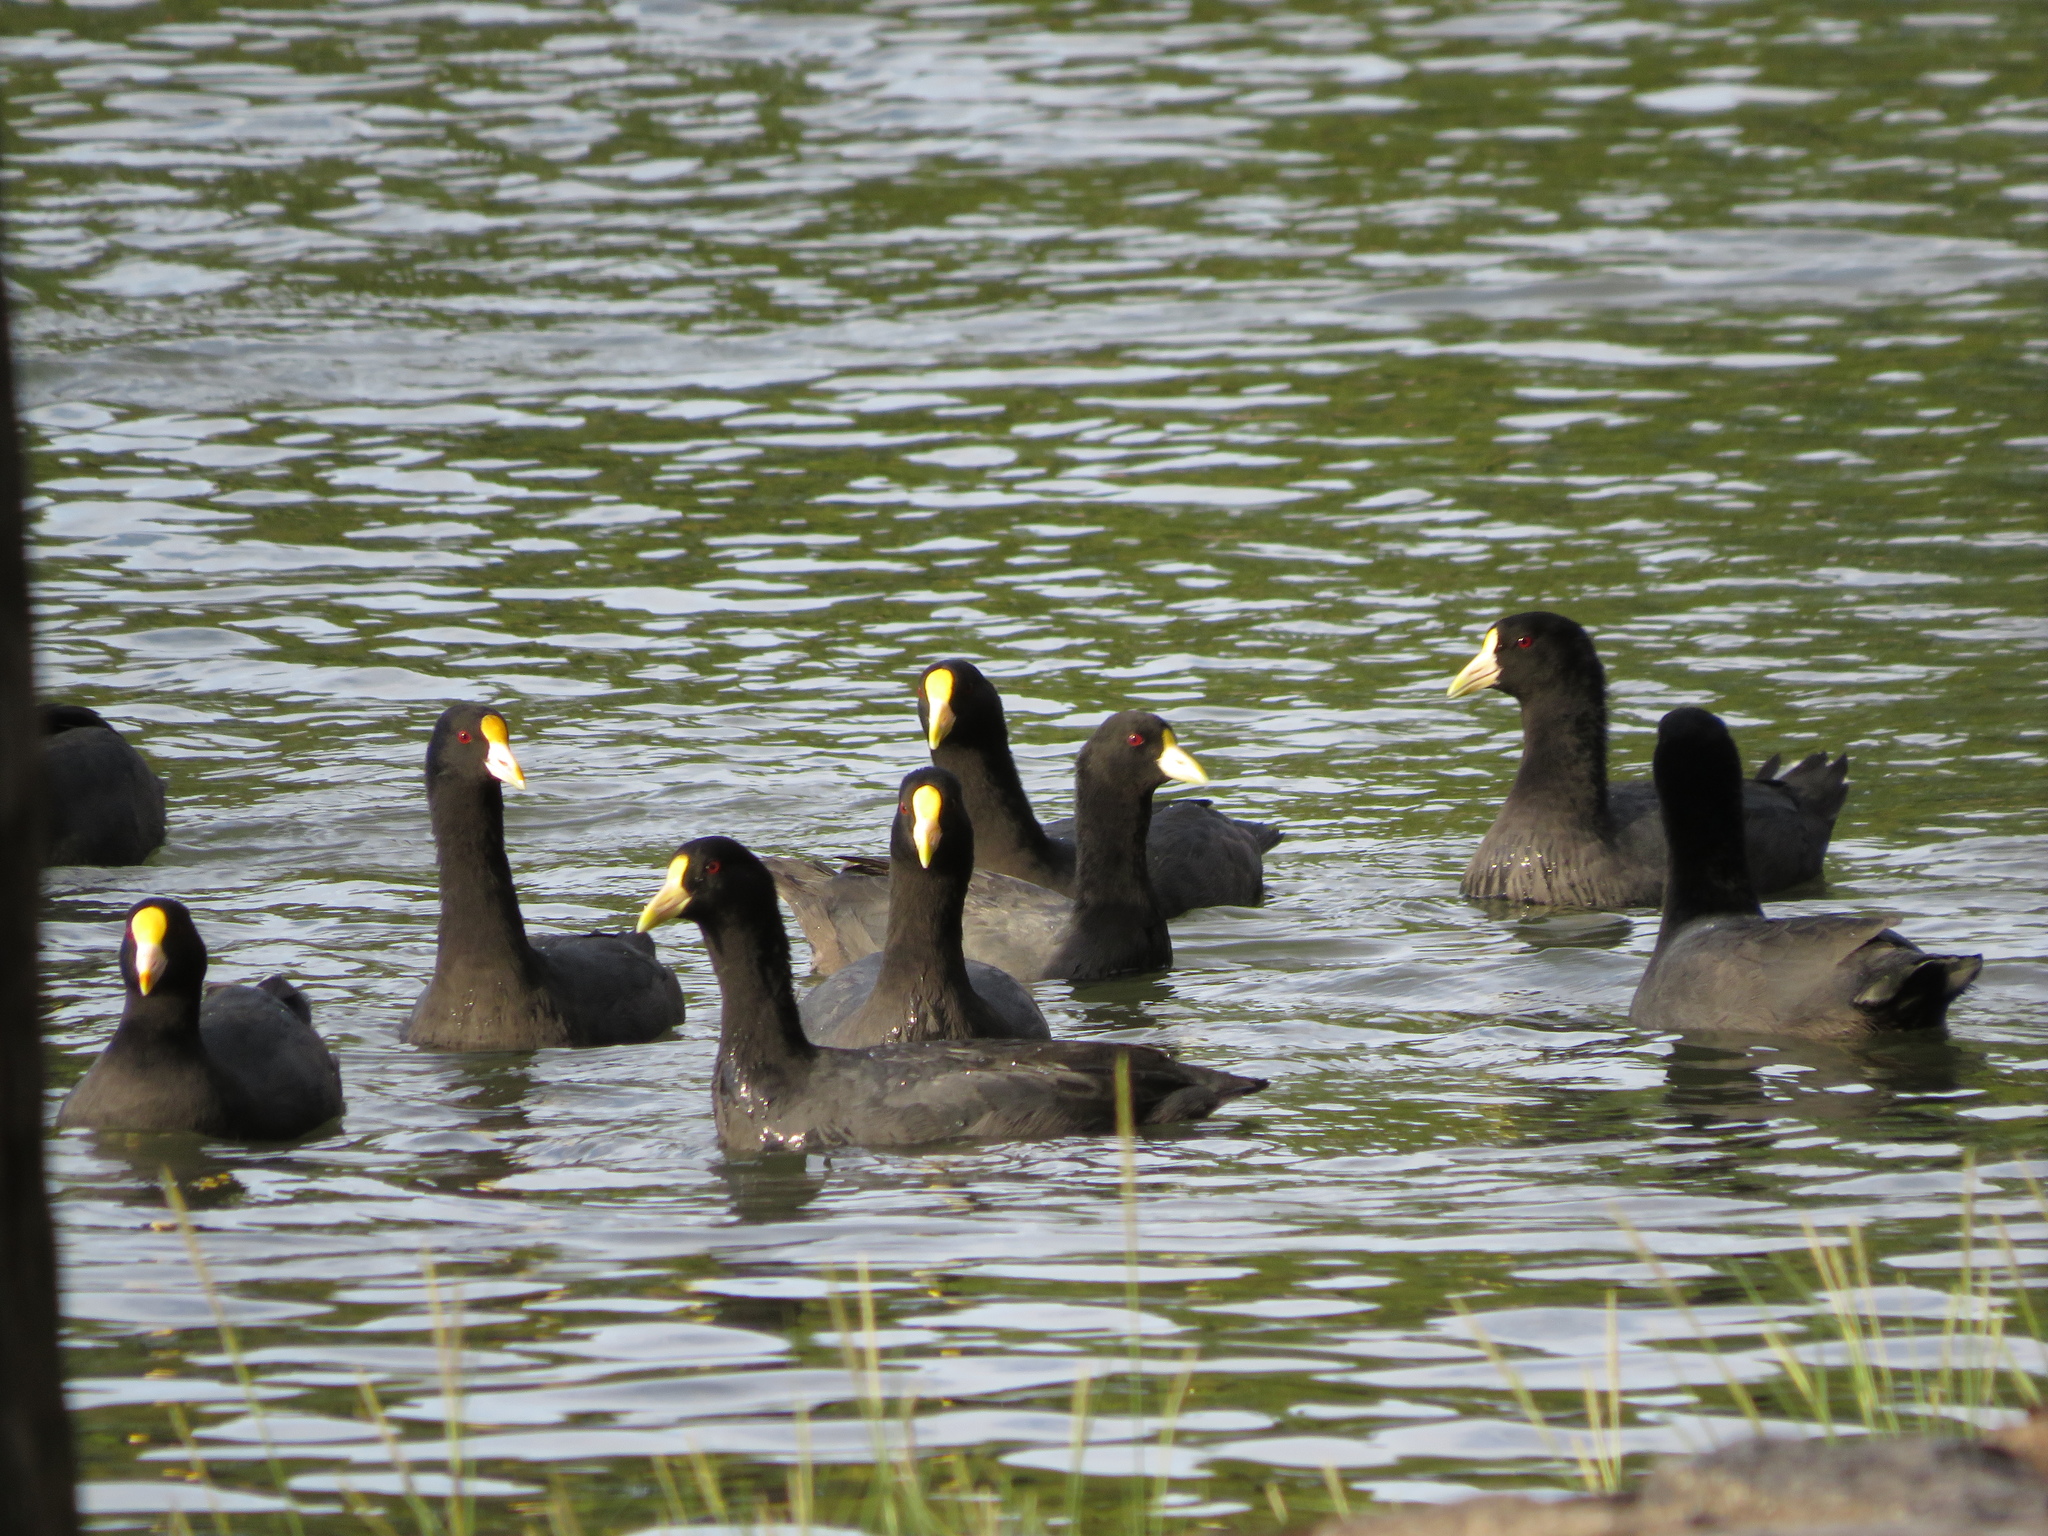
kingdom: Animalia
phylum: Chordata
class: Aves
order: Gruiformes
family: Rallidae
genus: Fulica
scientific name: Fulica leucoptera
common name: White-winged coot
